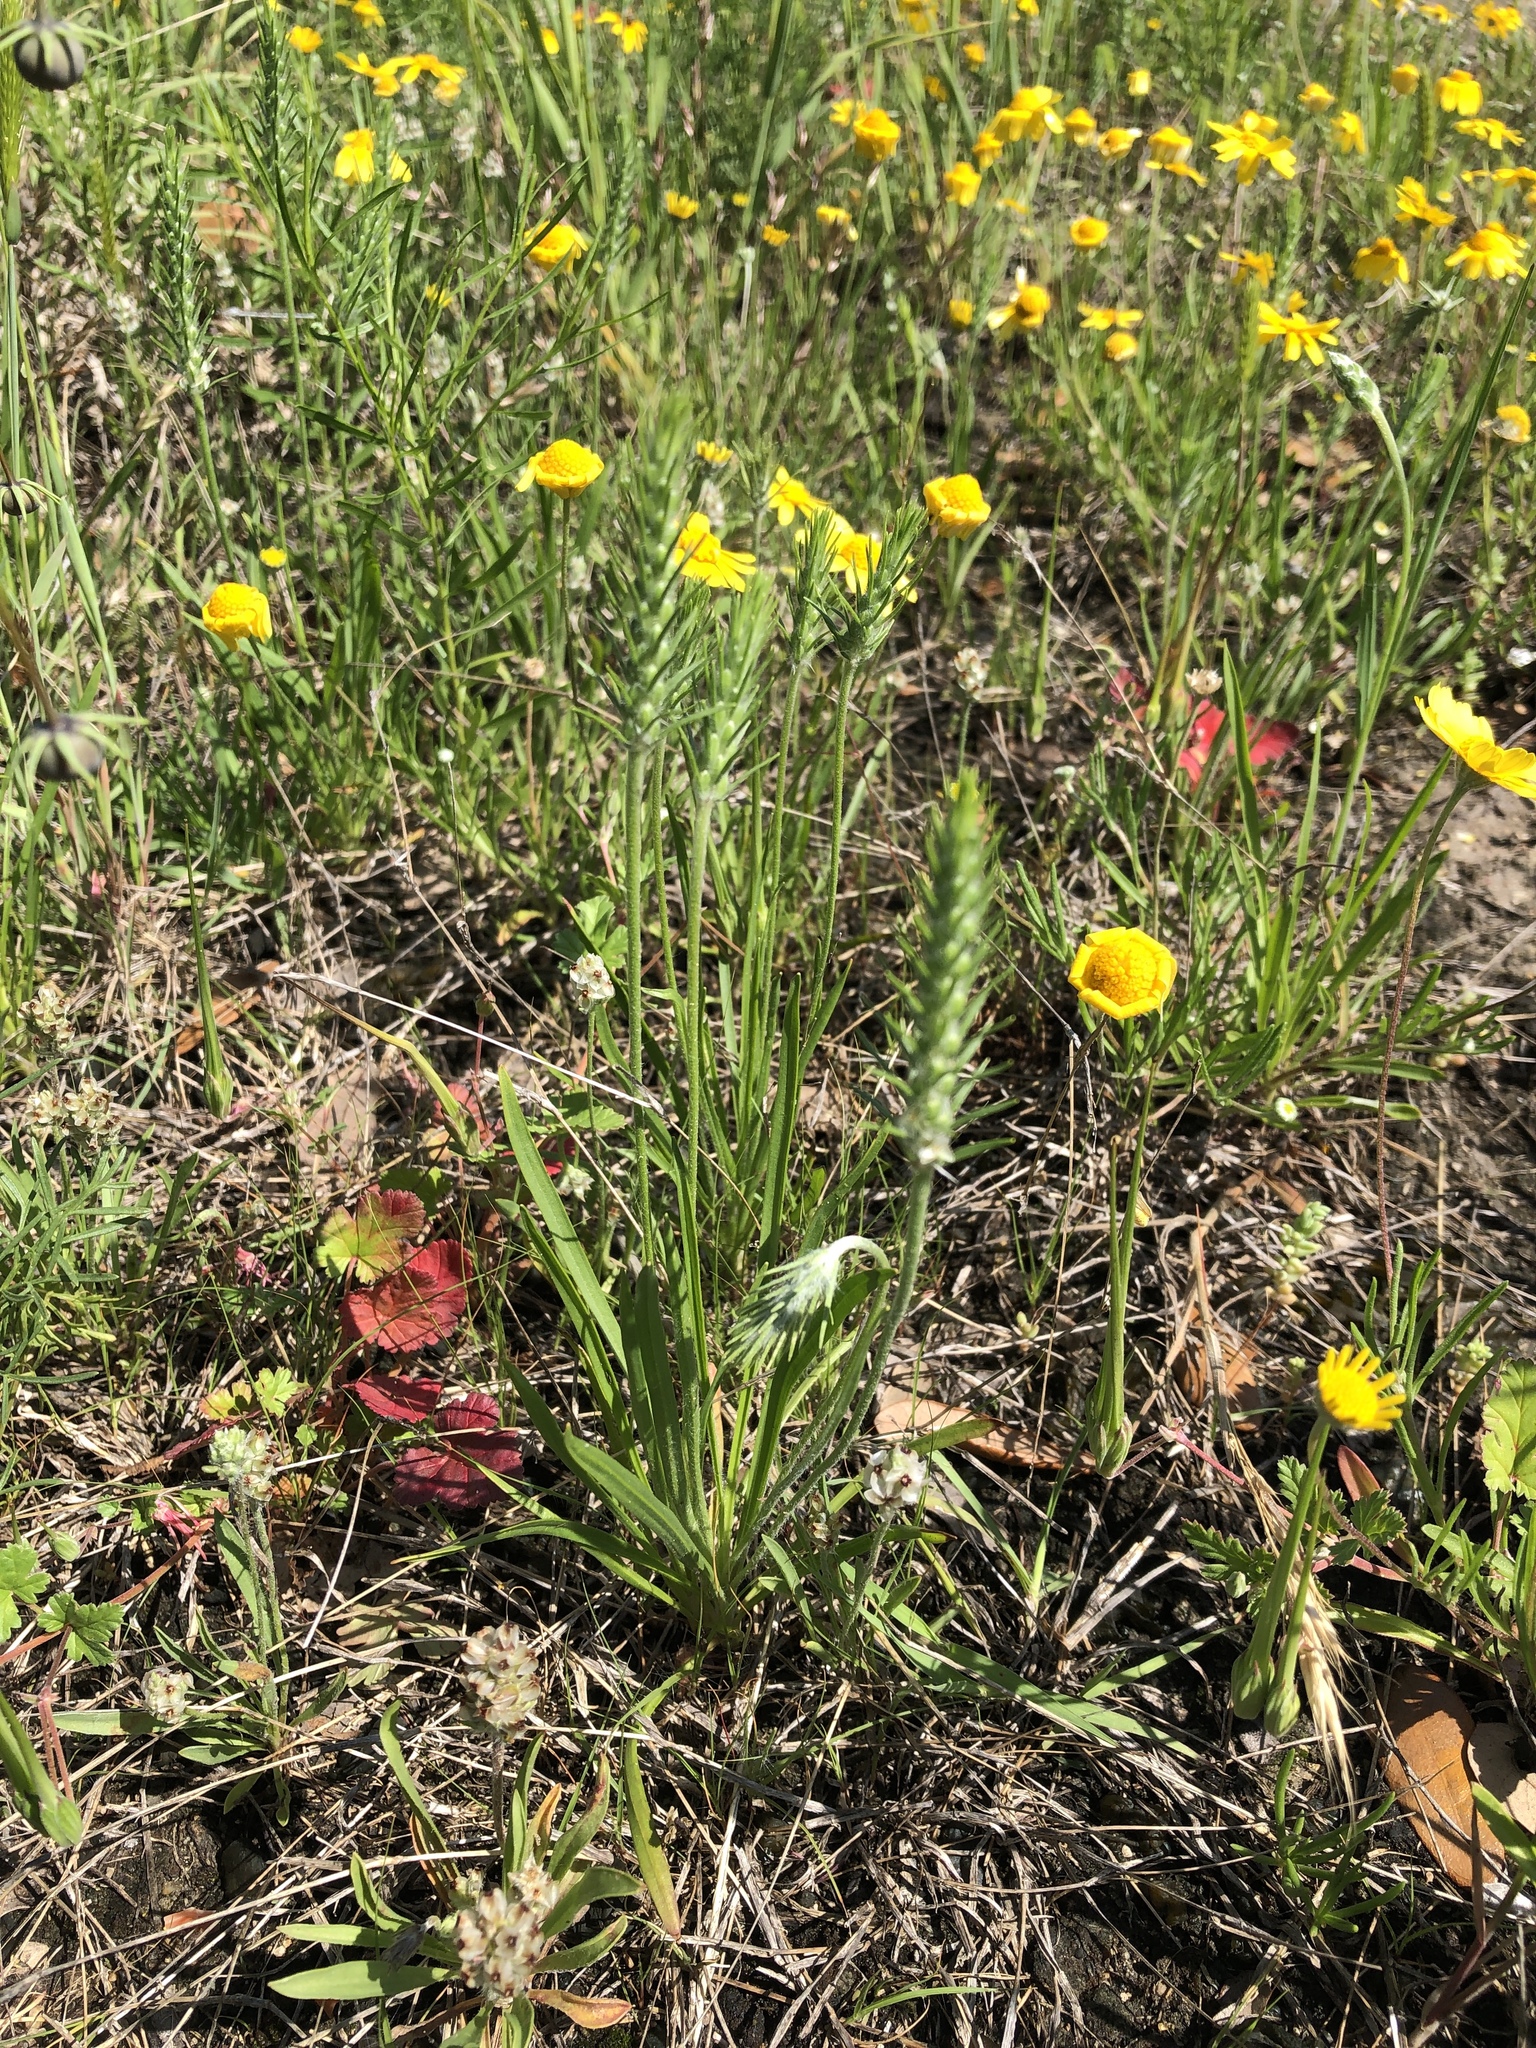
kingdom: Plantae
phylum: Tracheophyta
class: Magnoliopsida
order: Lamiales
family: Plantaginaceae
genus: Plantago
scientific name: Plantago aristata
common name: Bracted plantain
